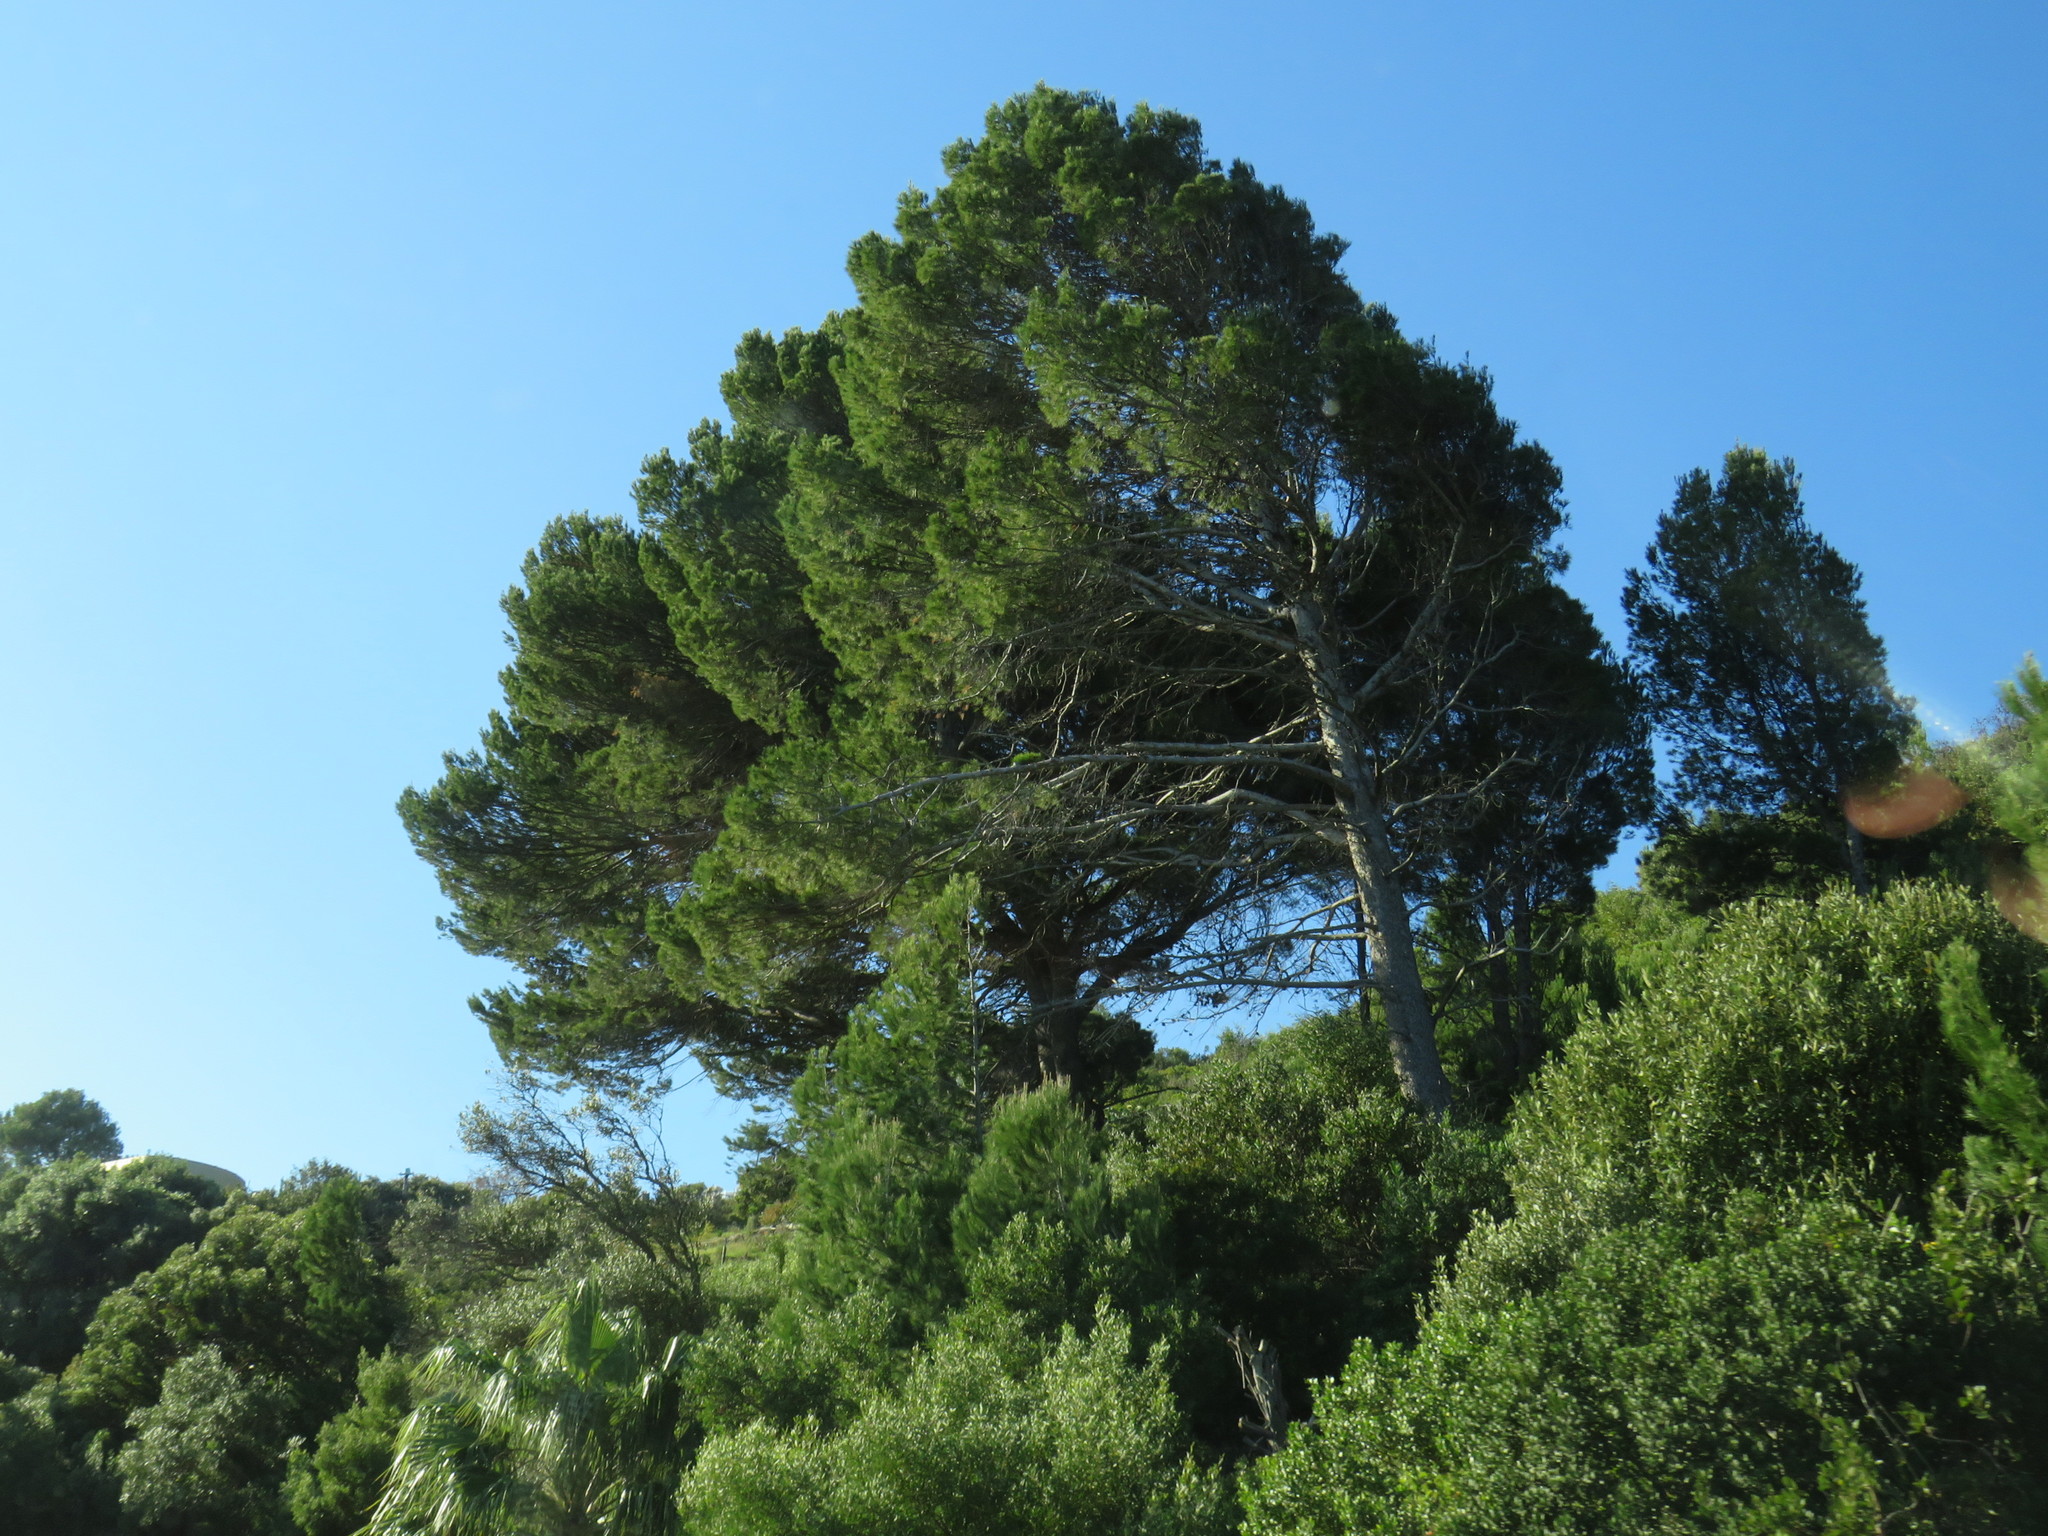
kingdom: Plantae
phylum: Tracheophyta
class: Pinopsida
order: Pinales
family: Pinaceae
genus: Pinus
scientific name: Pinus halepensis
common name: Aleppo pine
